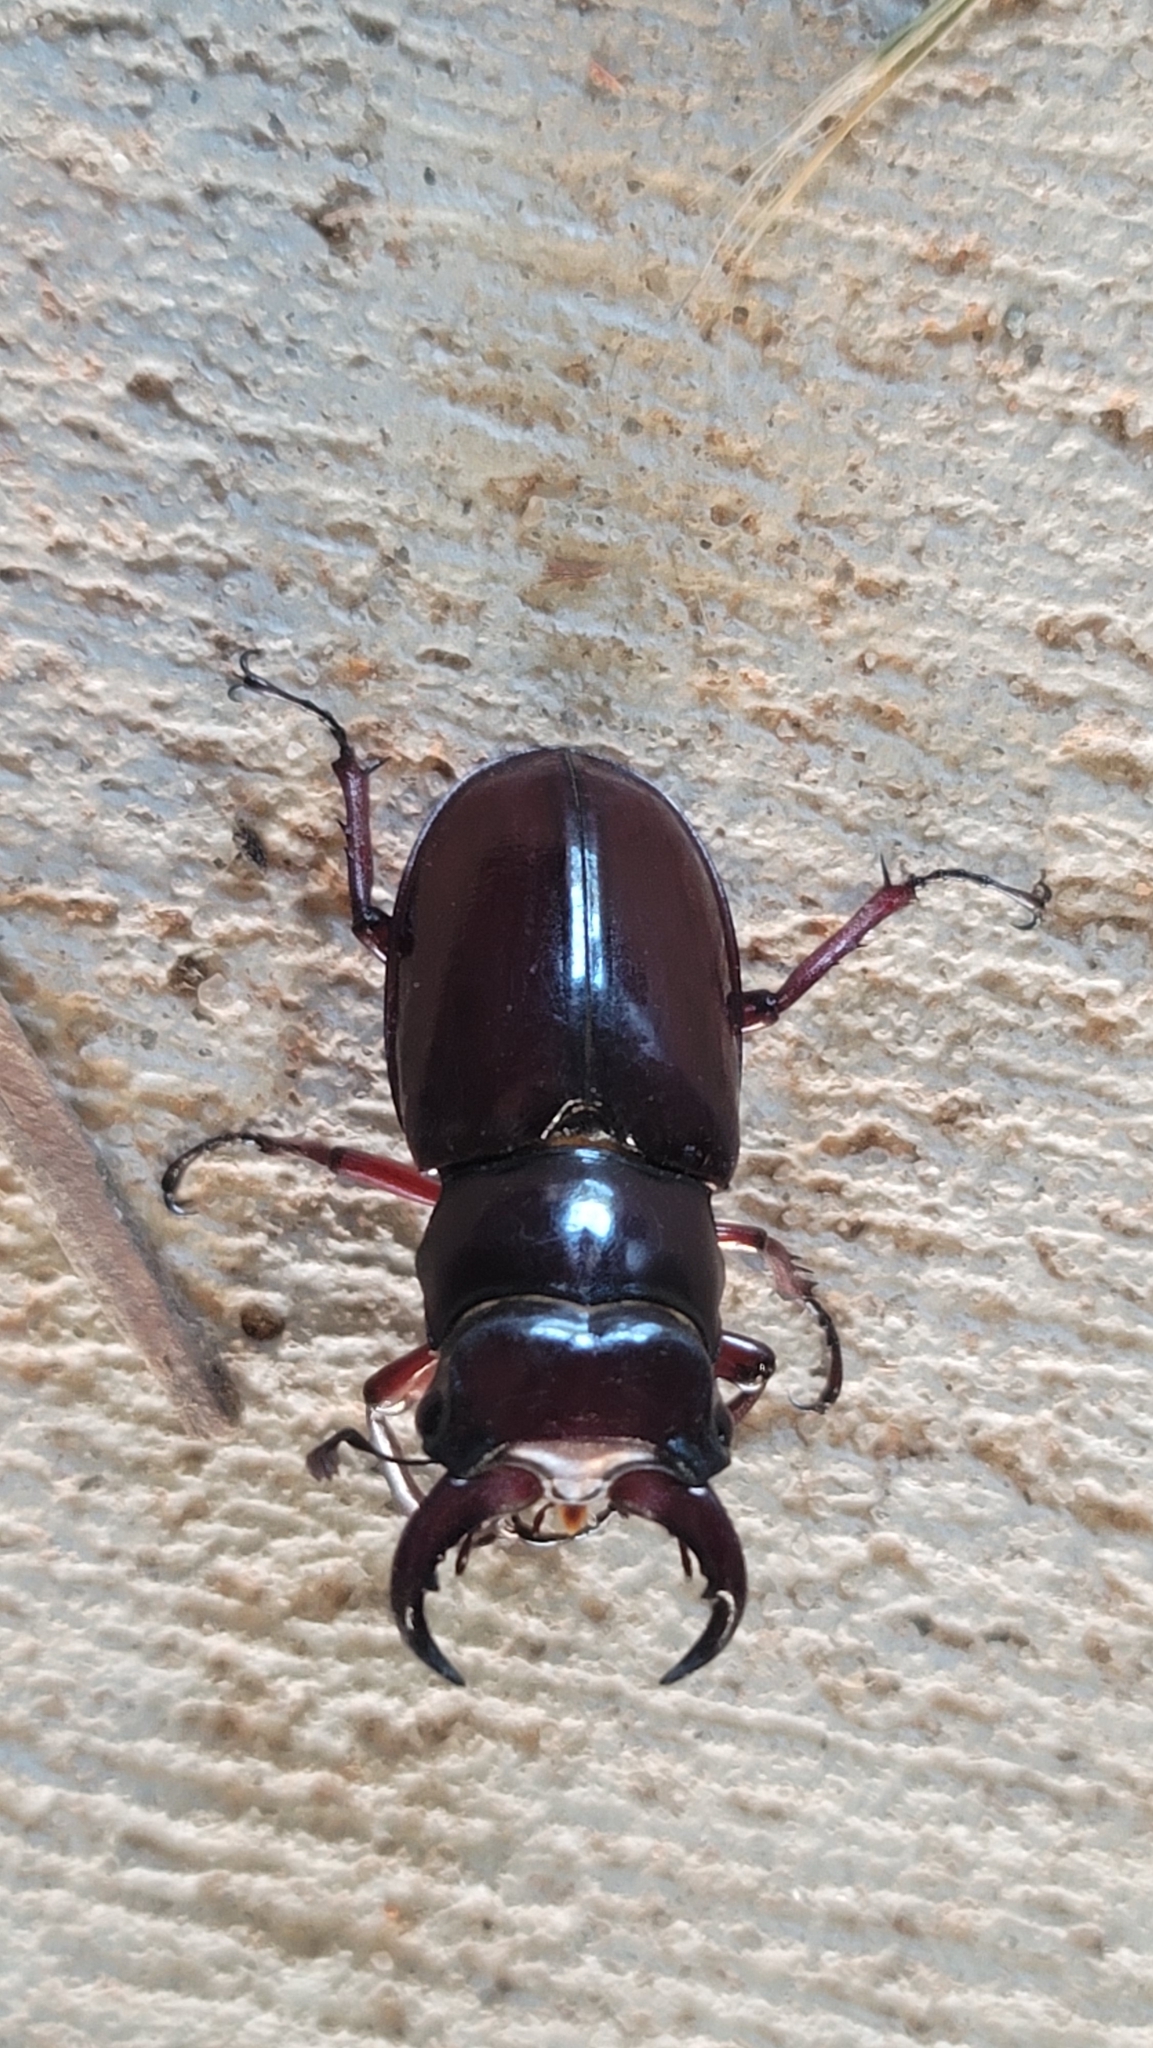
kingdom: Animalia
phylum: Arthropoda
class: Insecta
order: Coleoptera
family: Lucanidae
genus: Lucanus
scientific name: Lucanus capreolus
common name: Stag beetle
